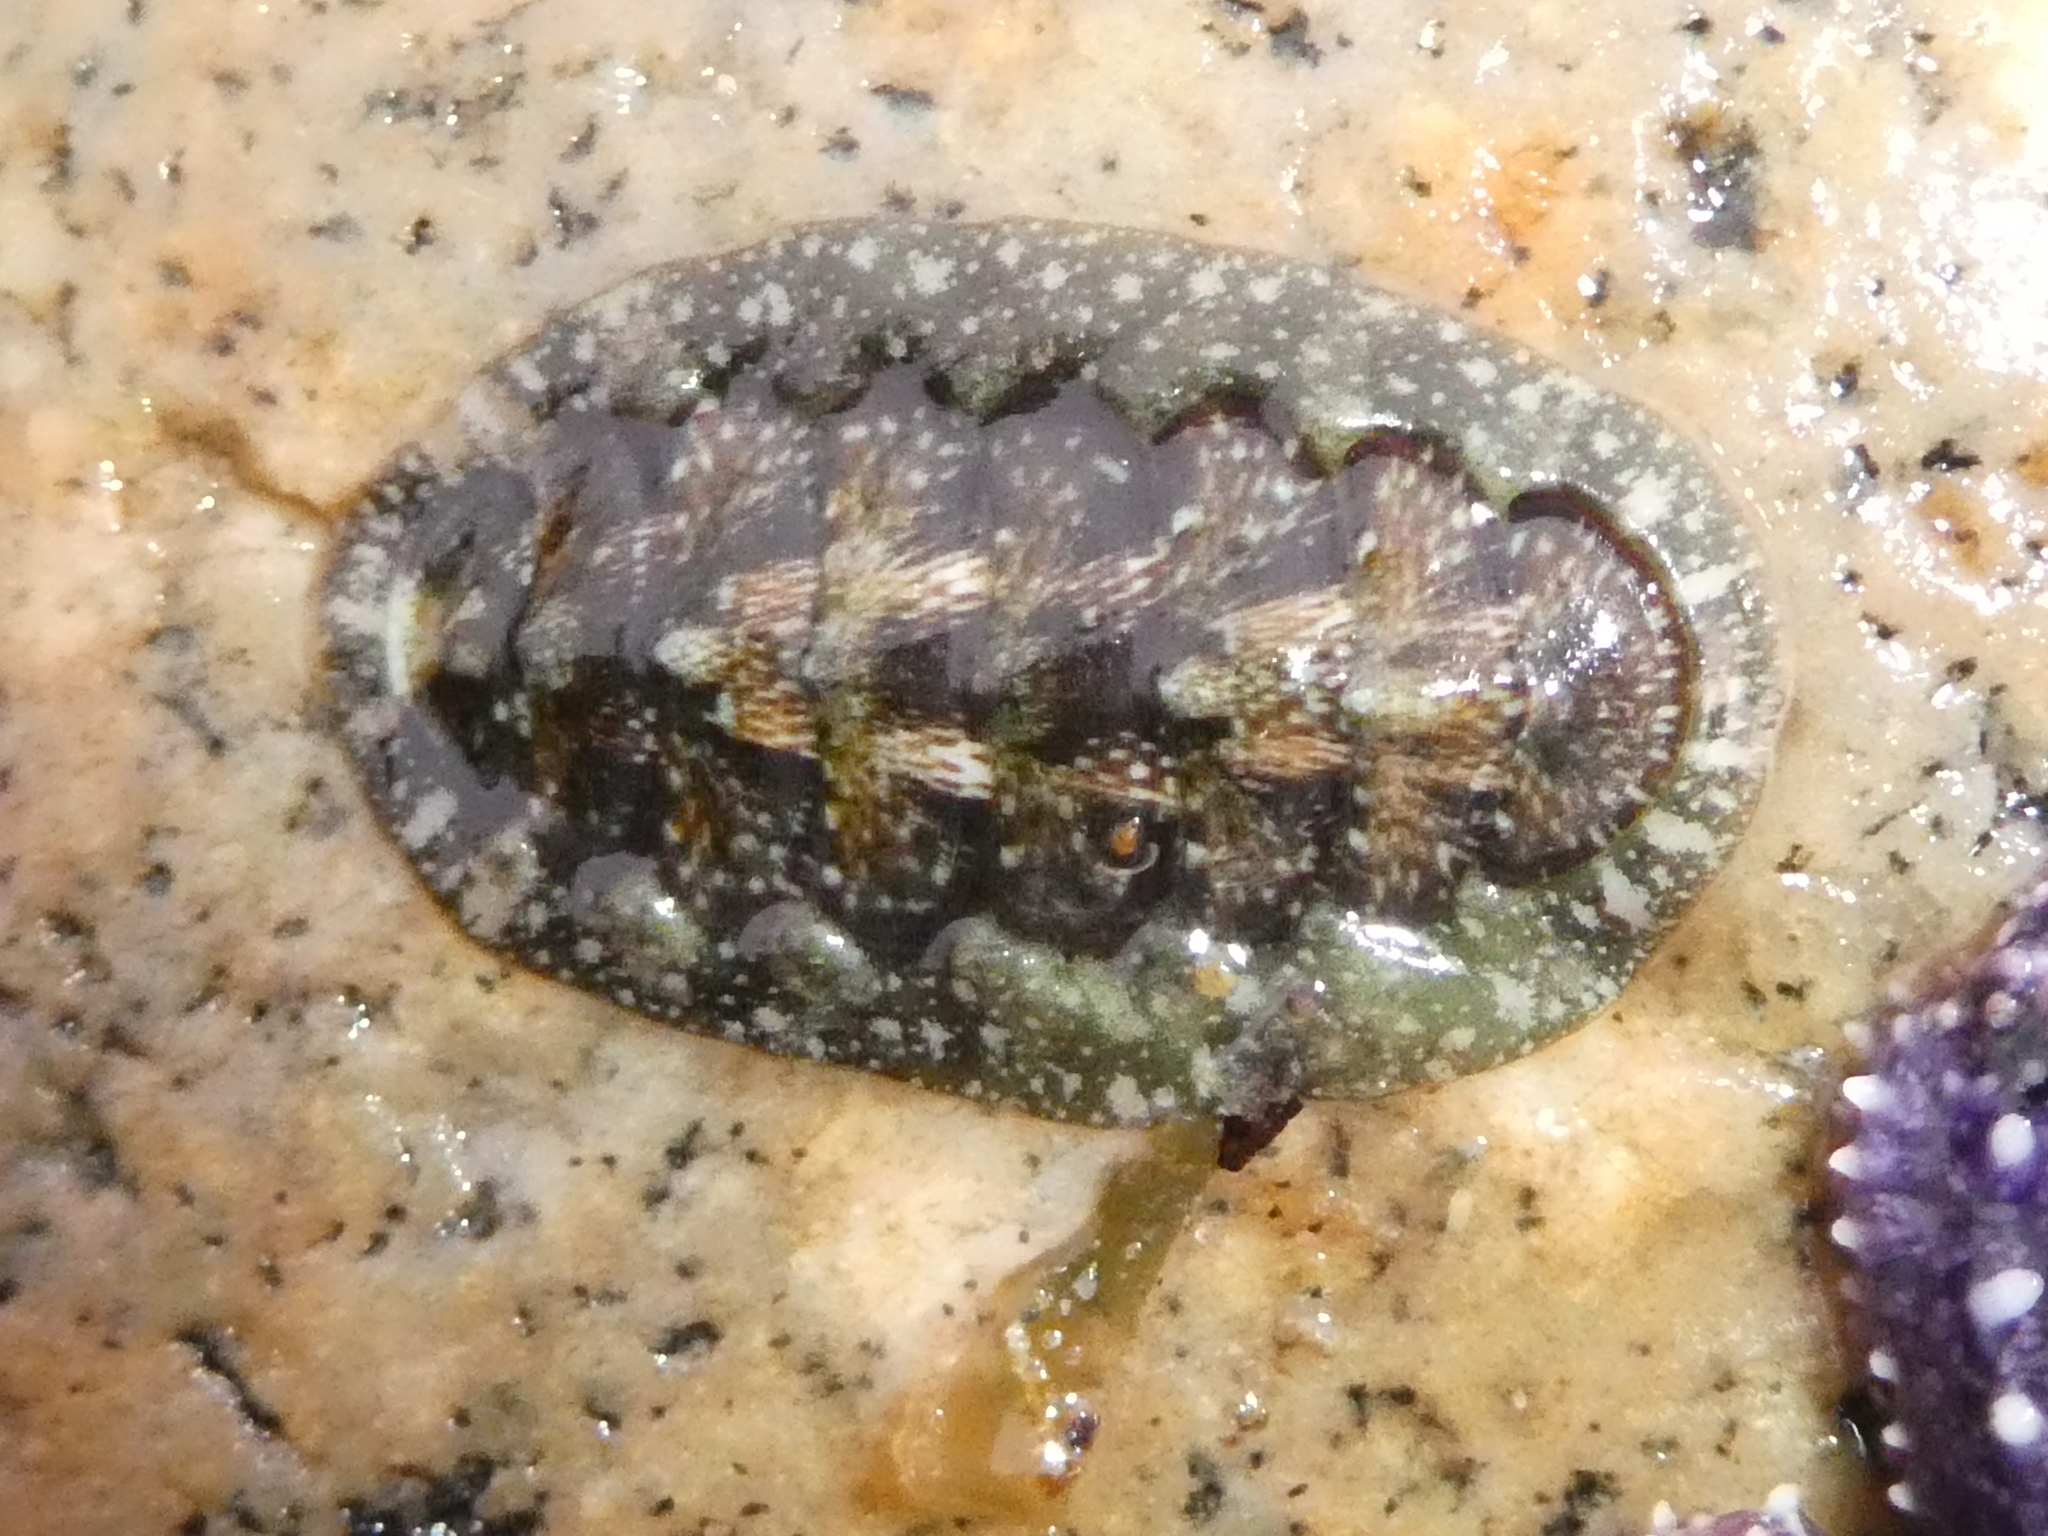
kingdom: Animalia
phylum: Mollusca
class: Polyplacophora
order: Chitonida
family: Tonicellidae
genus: Cyanoplax
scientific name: Cyanoplax dentiens
